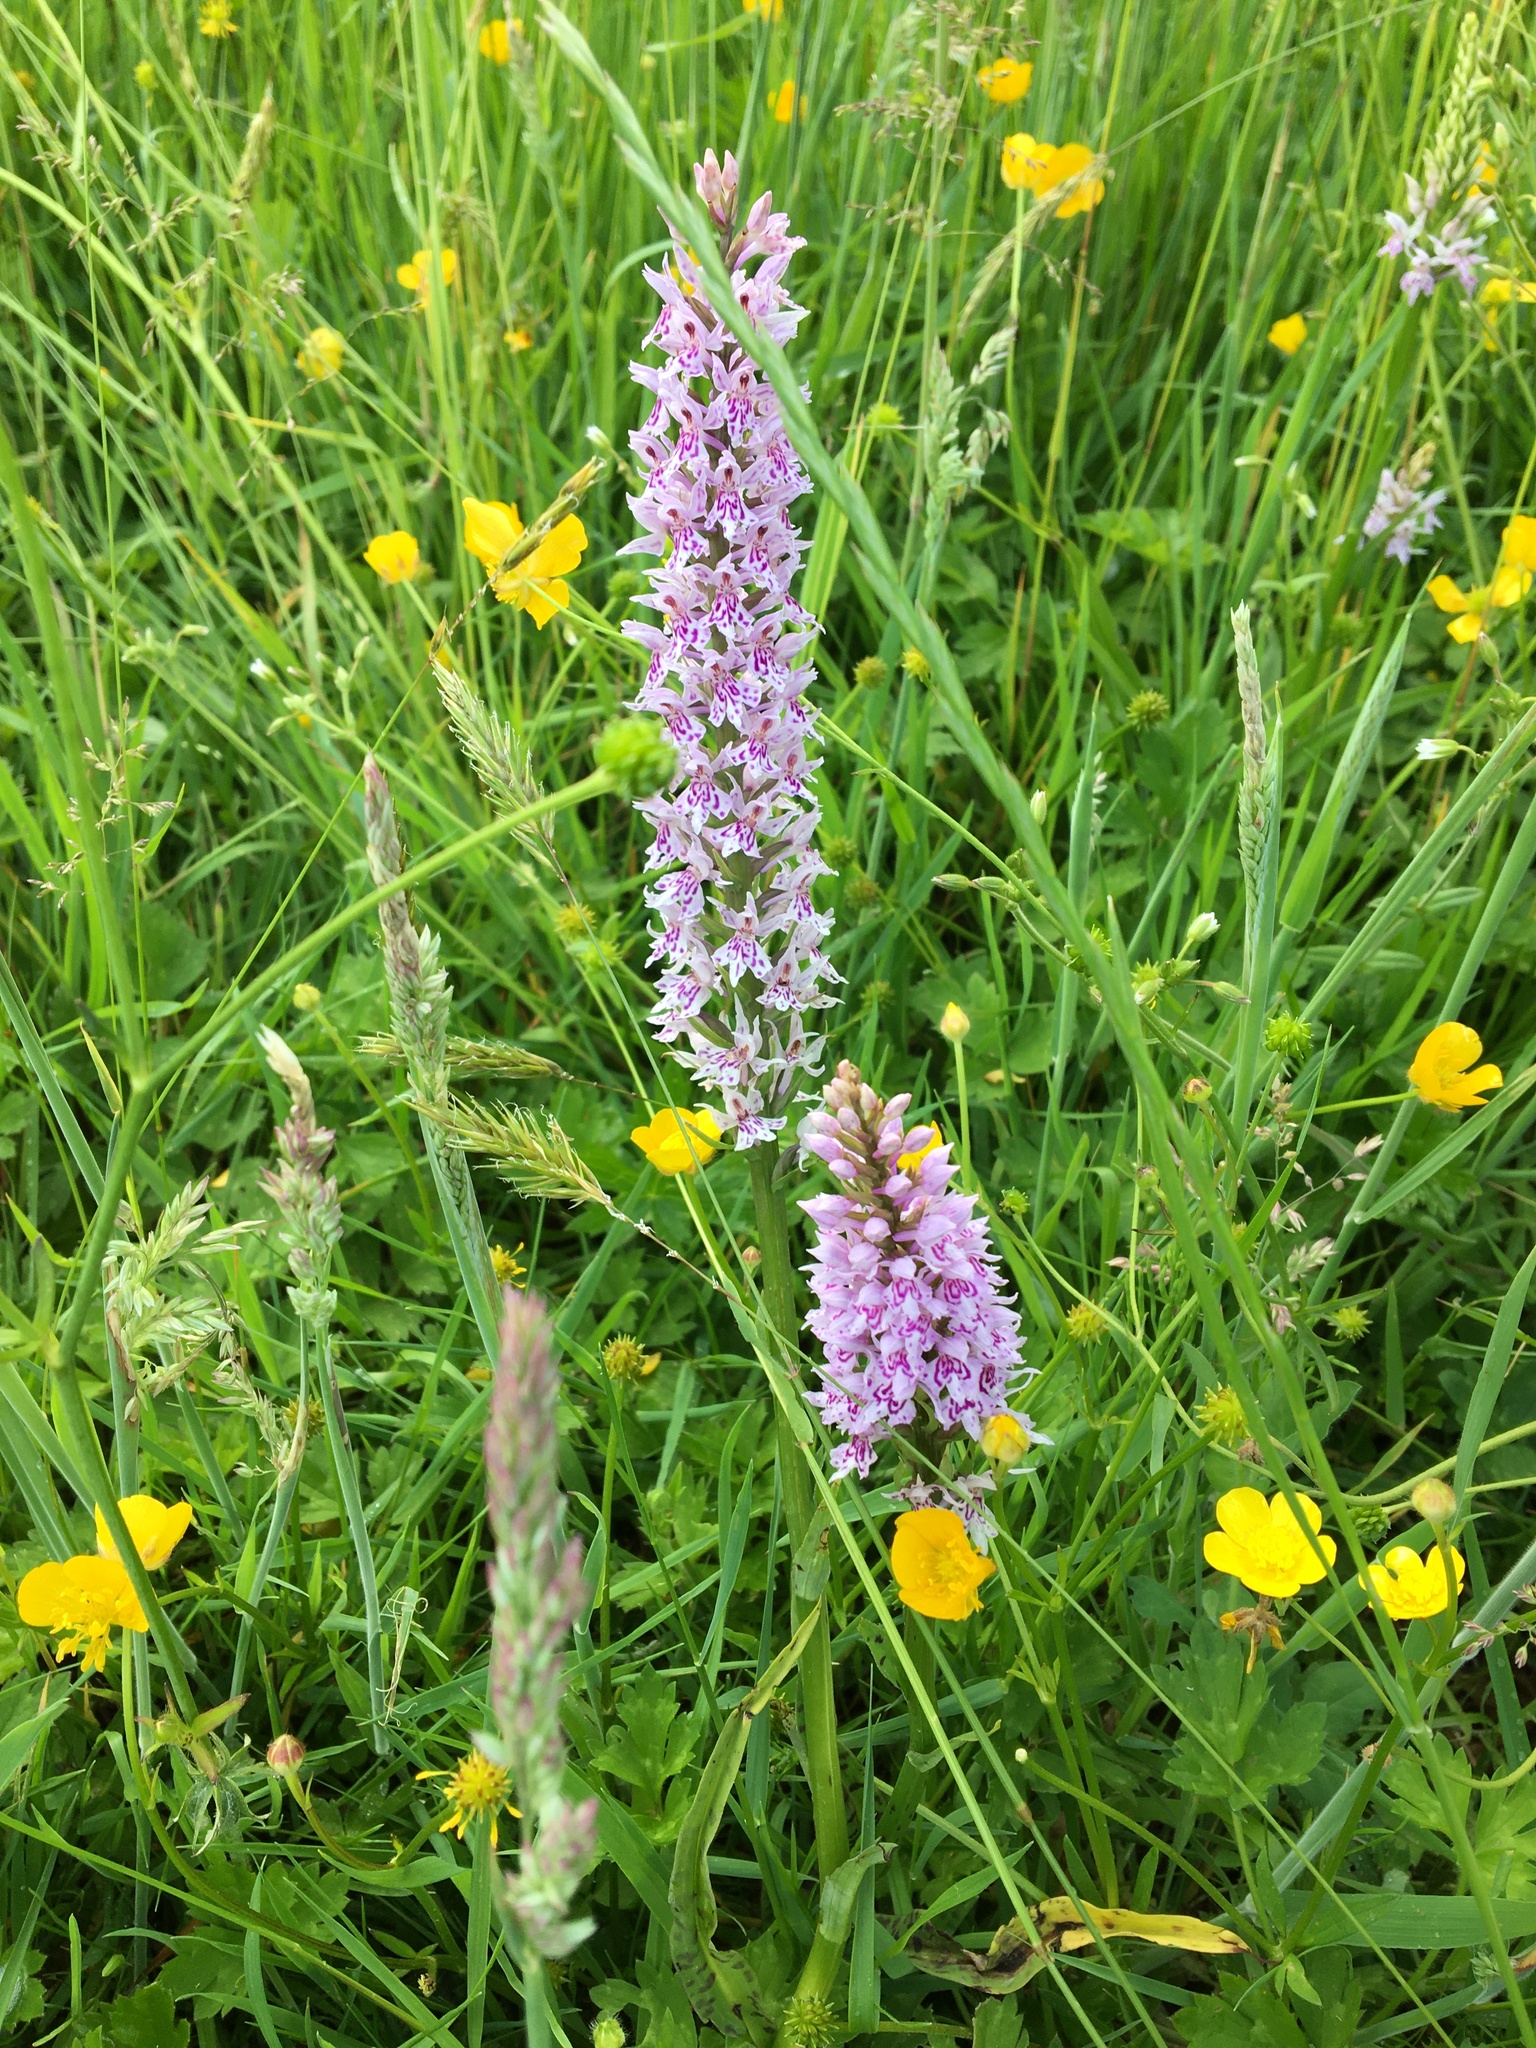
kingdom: Plantae
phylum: Tracheophyta
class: Liliopsida
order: Asparagales
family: Orchidaceae
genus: Dactylorhiza
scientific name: Dactylorhiza maculata
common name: Heath spotted-orchid
